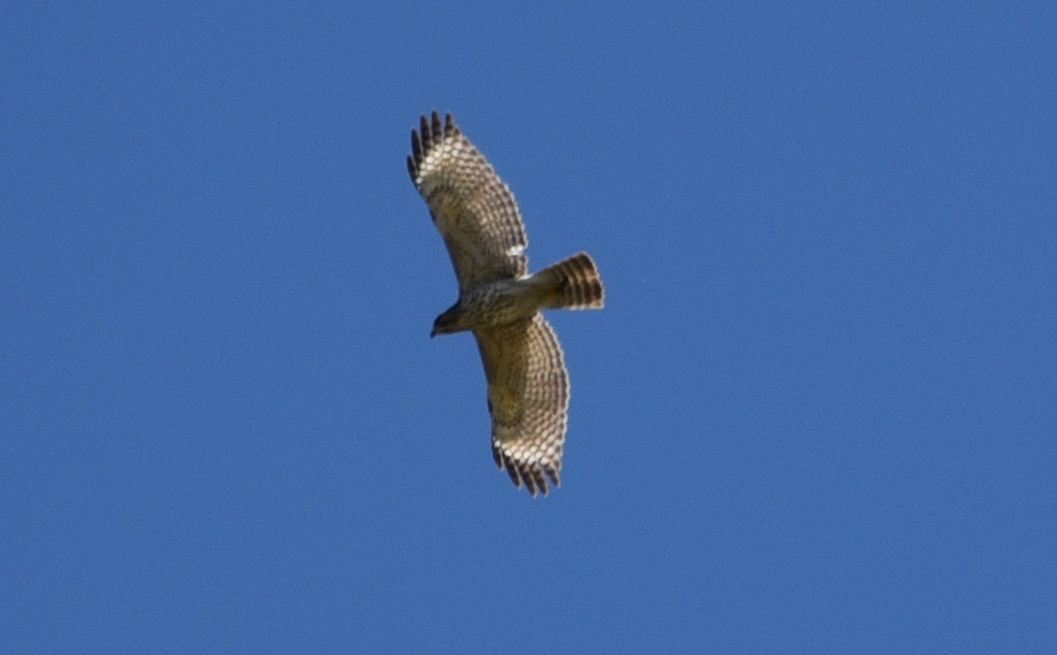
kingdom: Animalia
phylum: Chordata
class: Aves
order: Accipitriformes
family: Accipitridae
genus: Buteo
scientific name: Buteo lineatus
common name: Red-shouldered hawk
